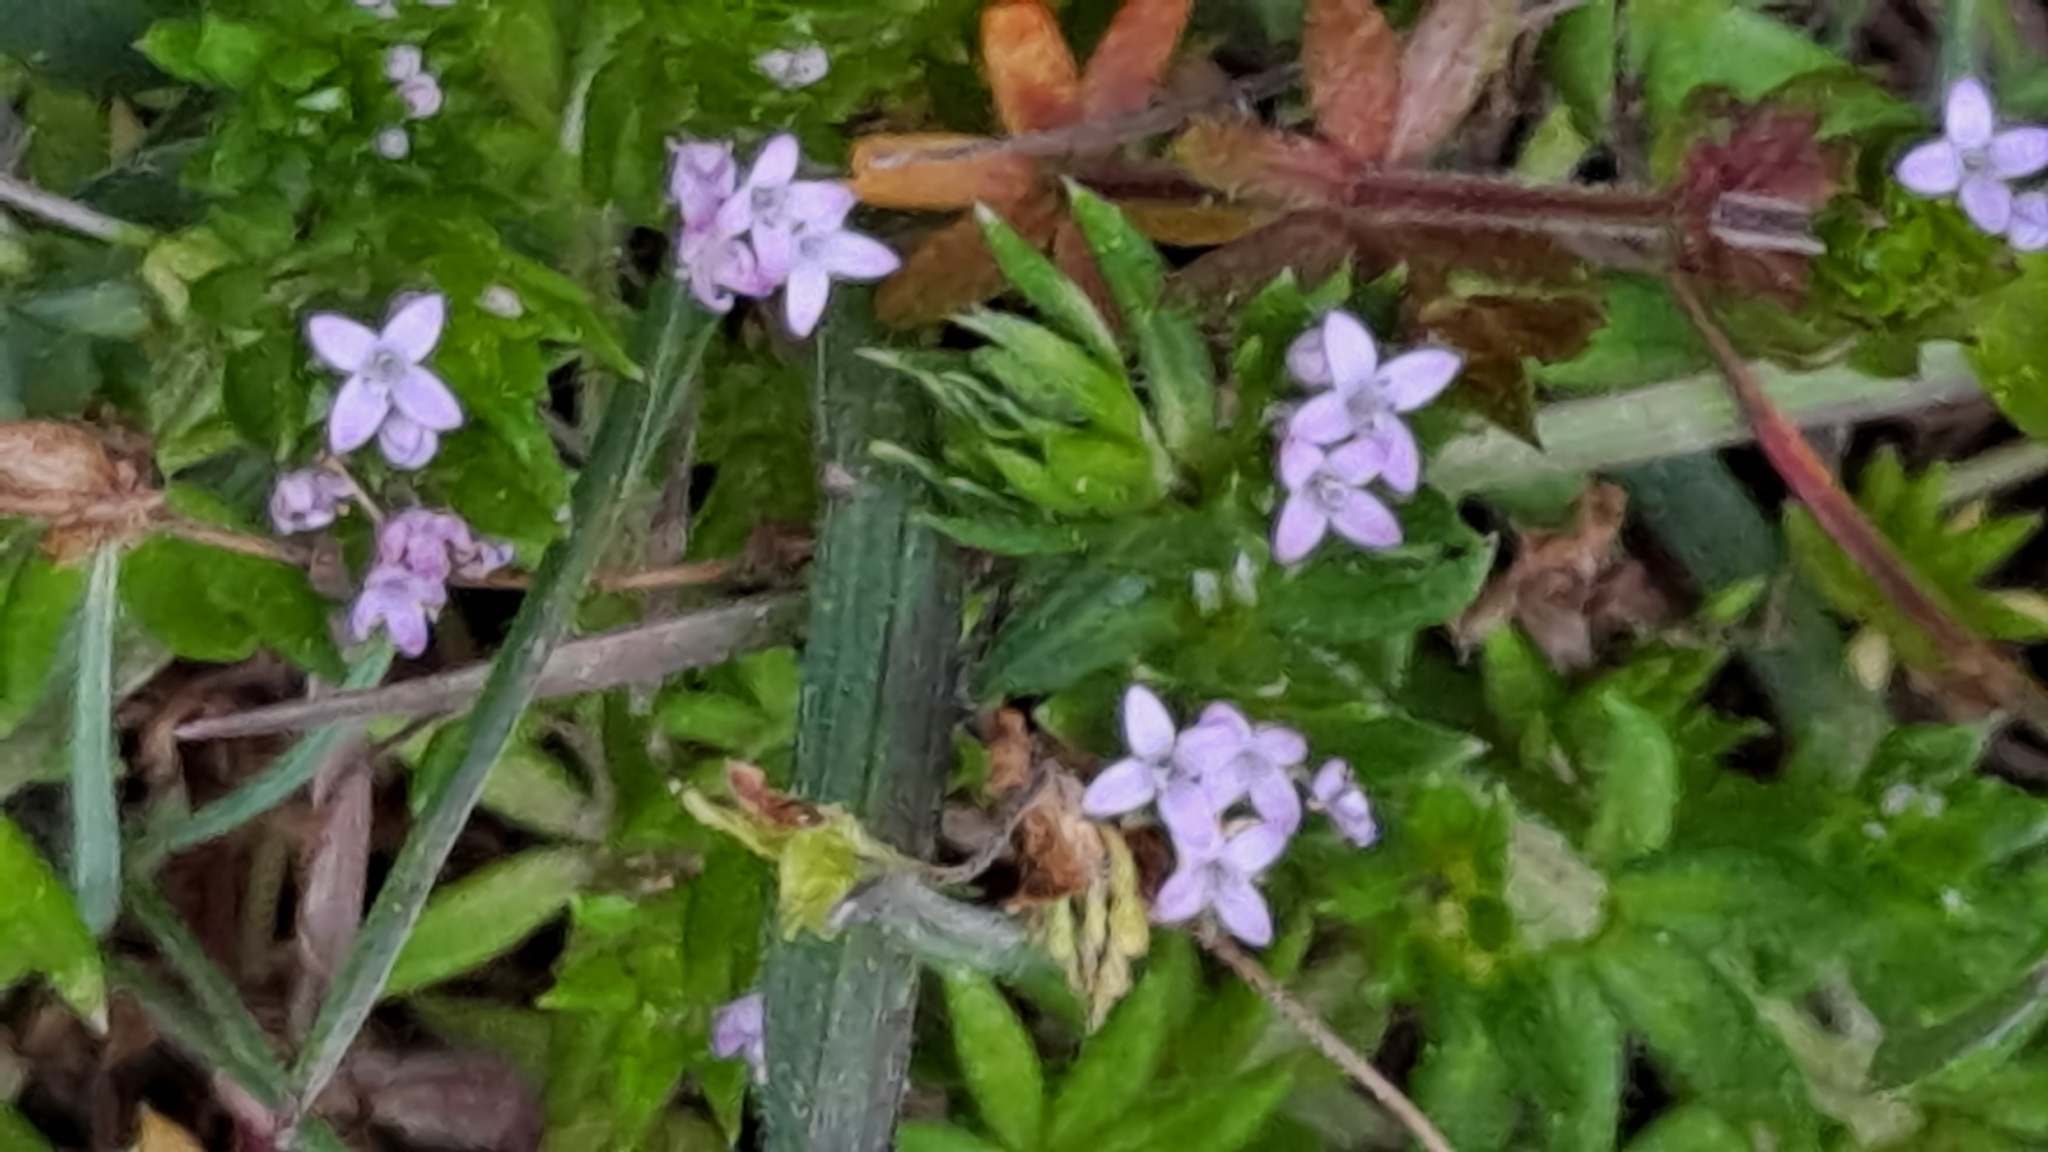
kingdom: Plantae
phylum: Tracheophyta
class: Magnoliopsida
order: Gentianales
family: Rubiaceae
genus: Sherardia
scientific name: Sherardia arvensis
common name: Field madder
